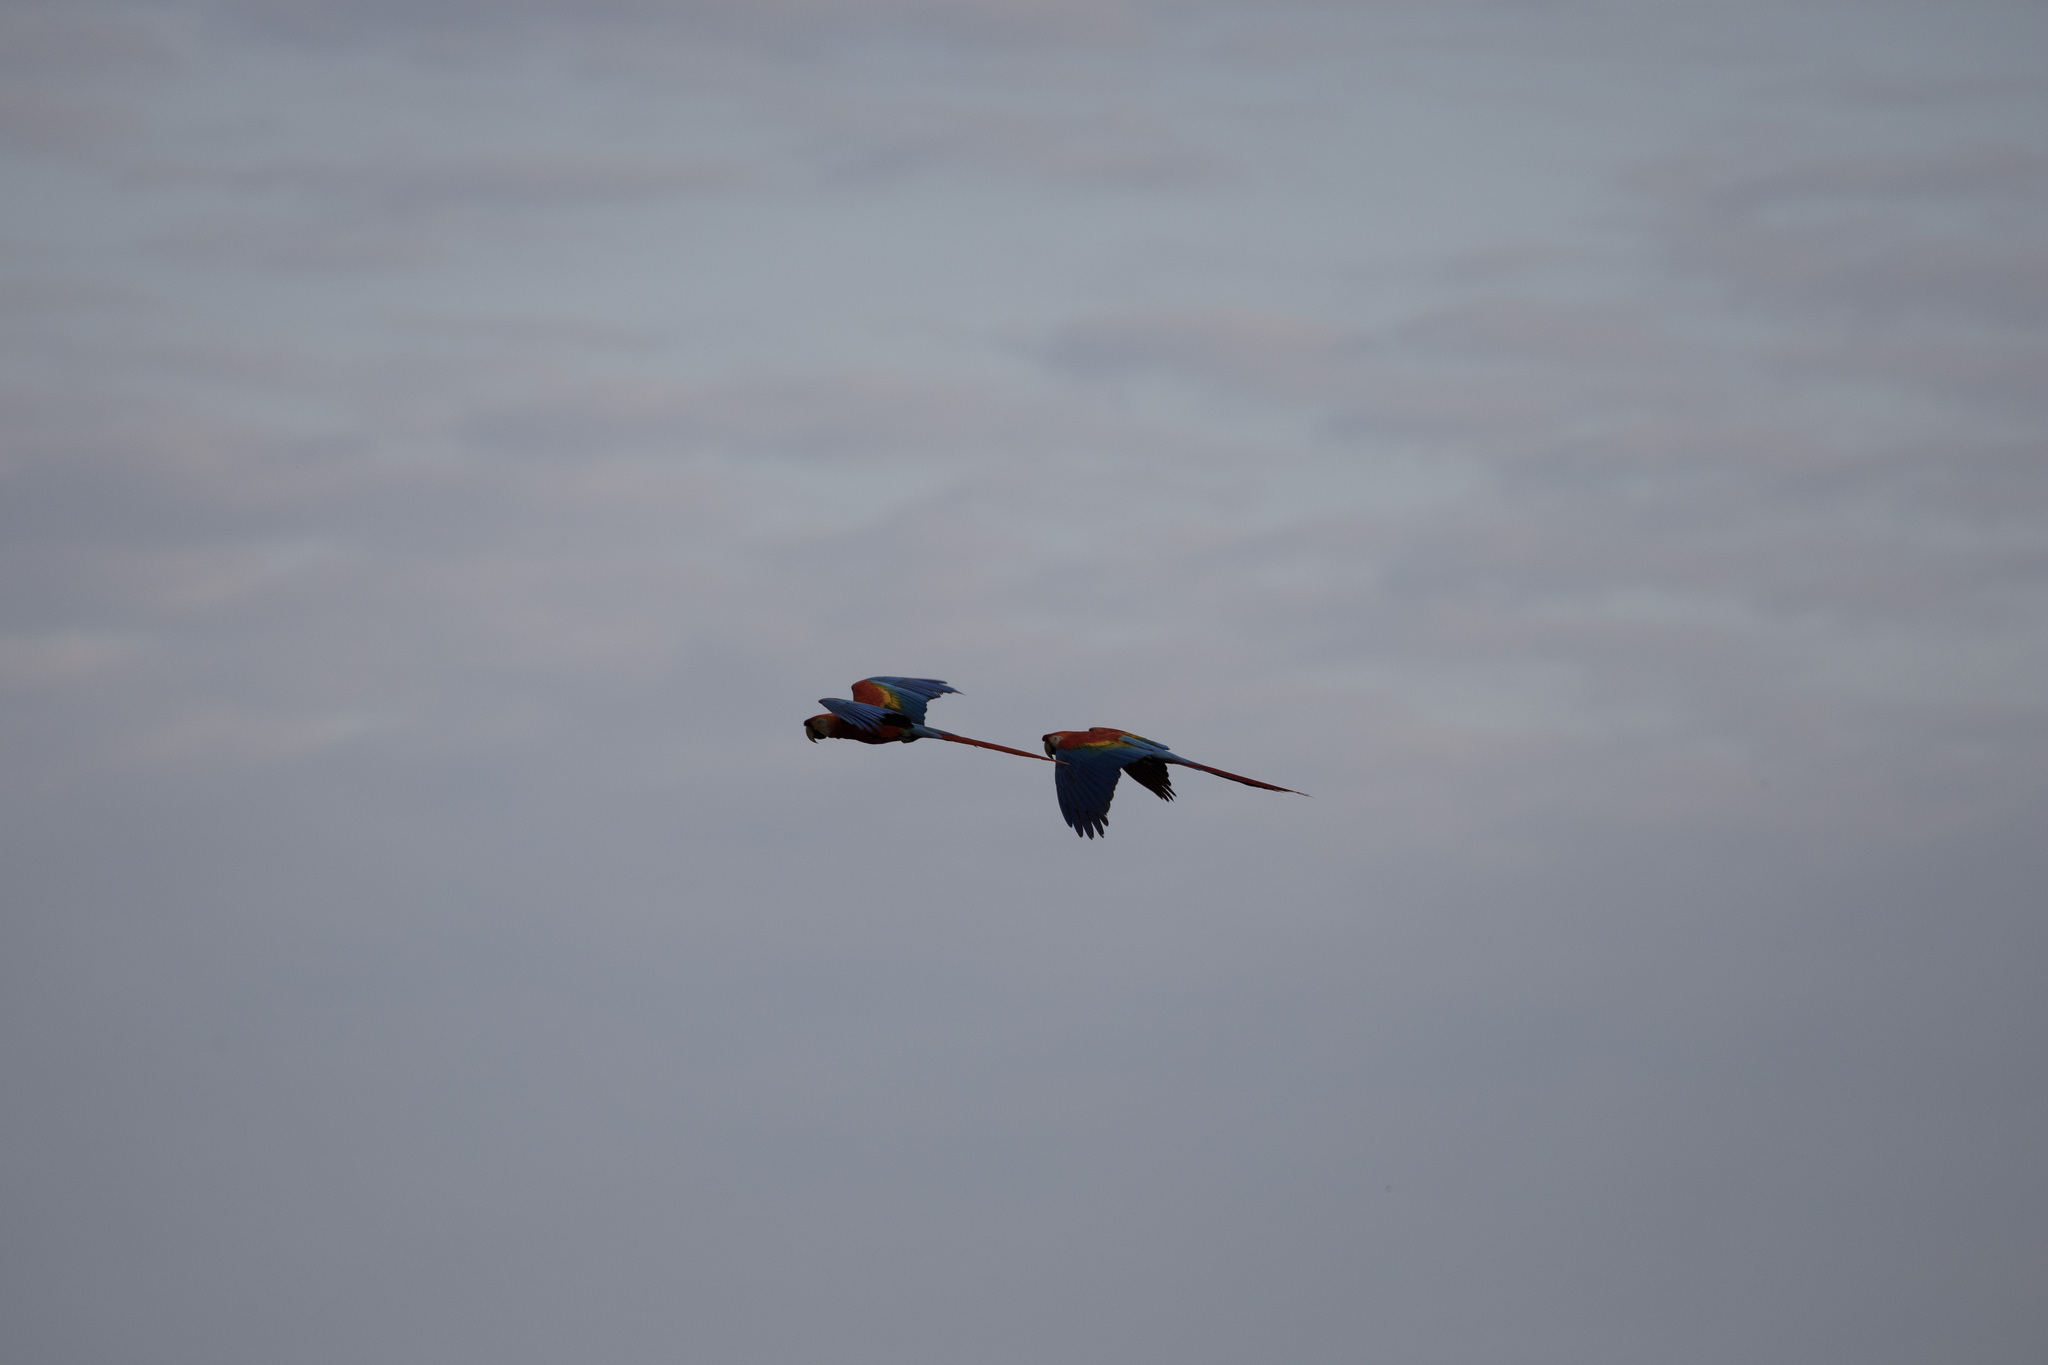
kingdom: Animalia
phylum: Chordata
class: Aves
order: Psittaciformes
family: Psittacidae
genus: Ara
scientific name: Ara macao
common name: Scarlet macaw
